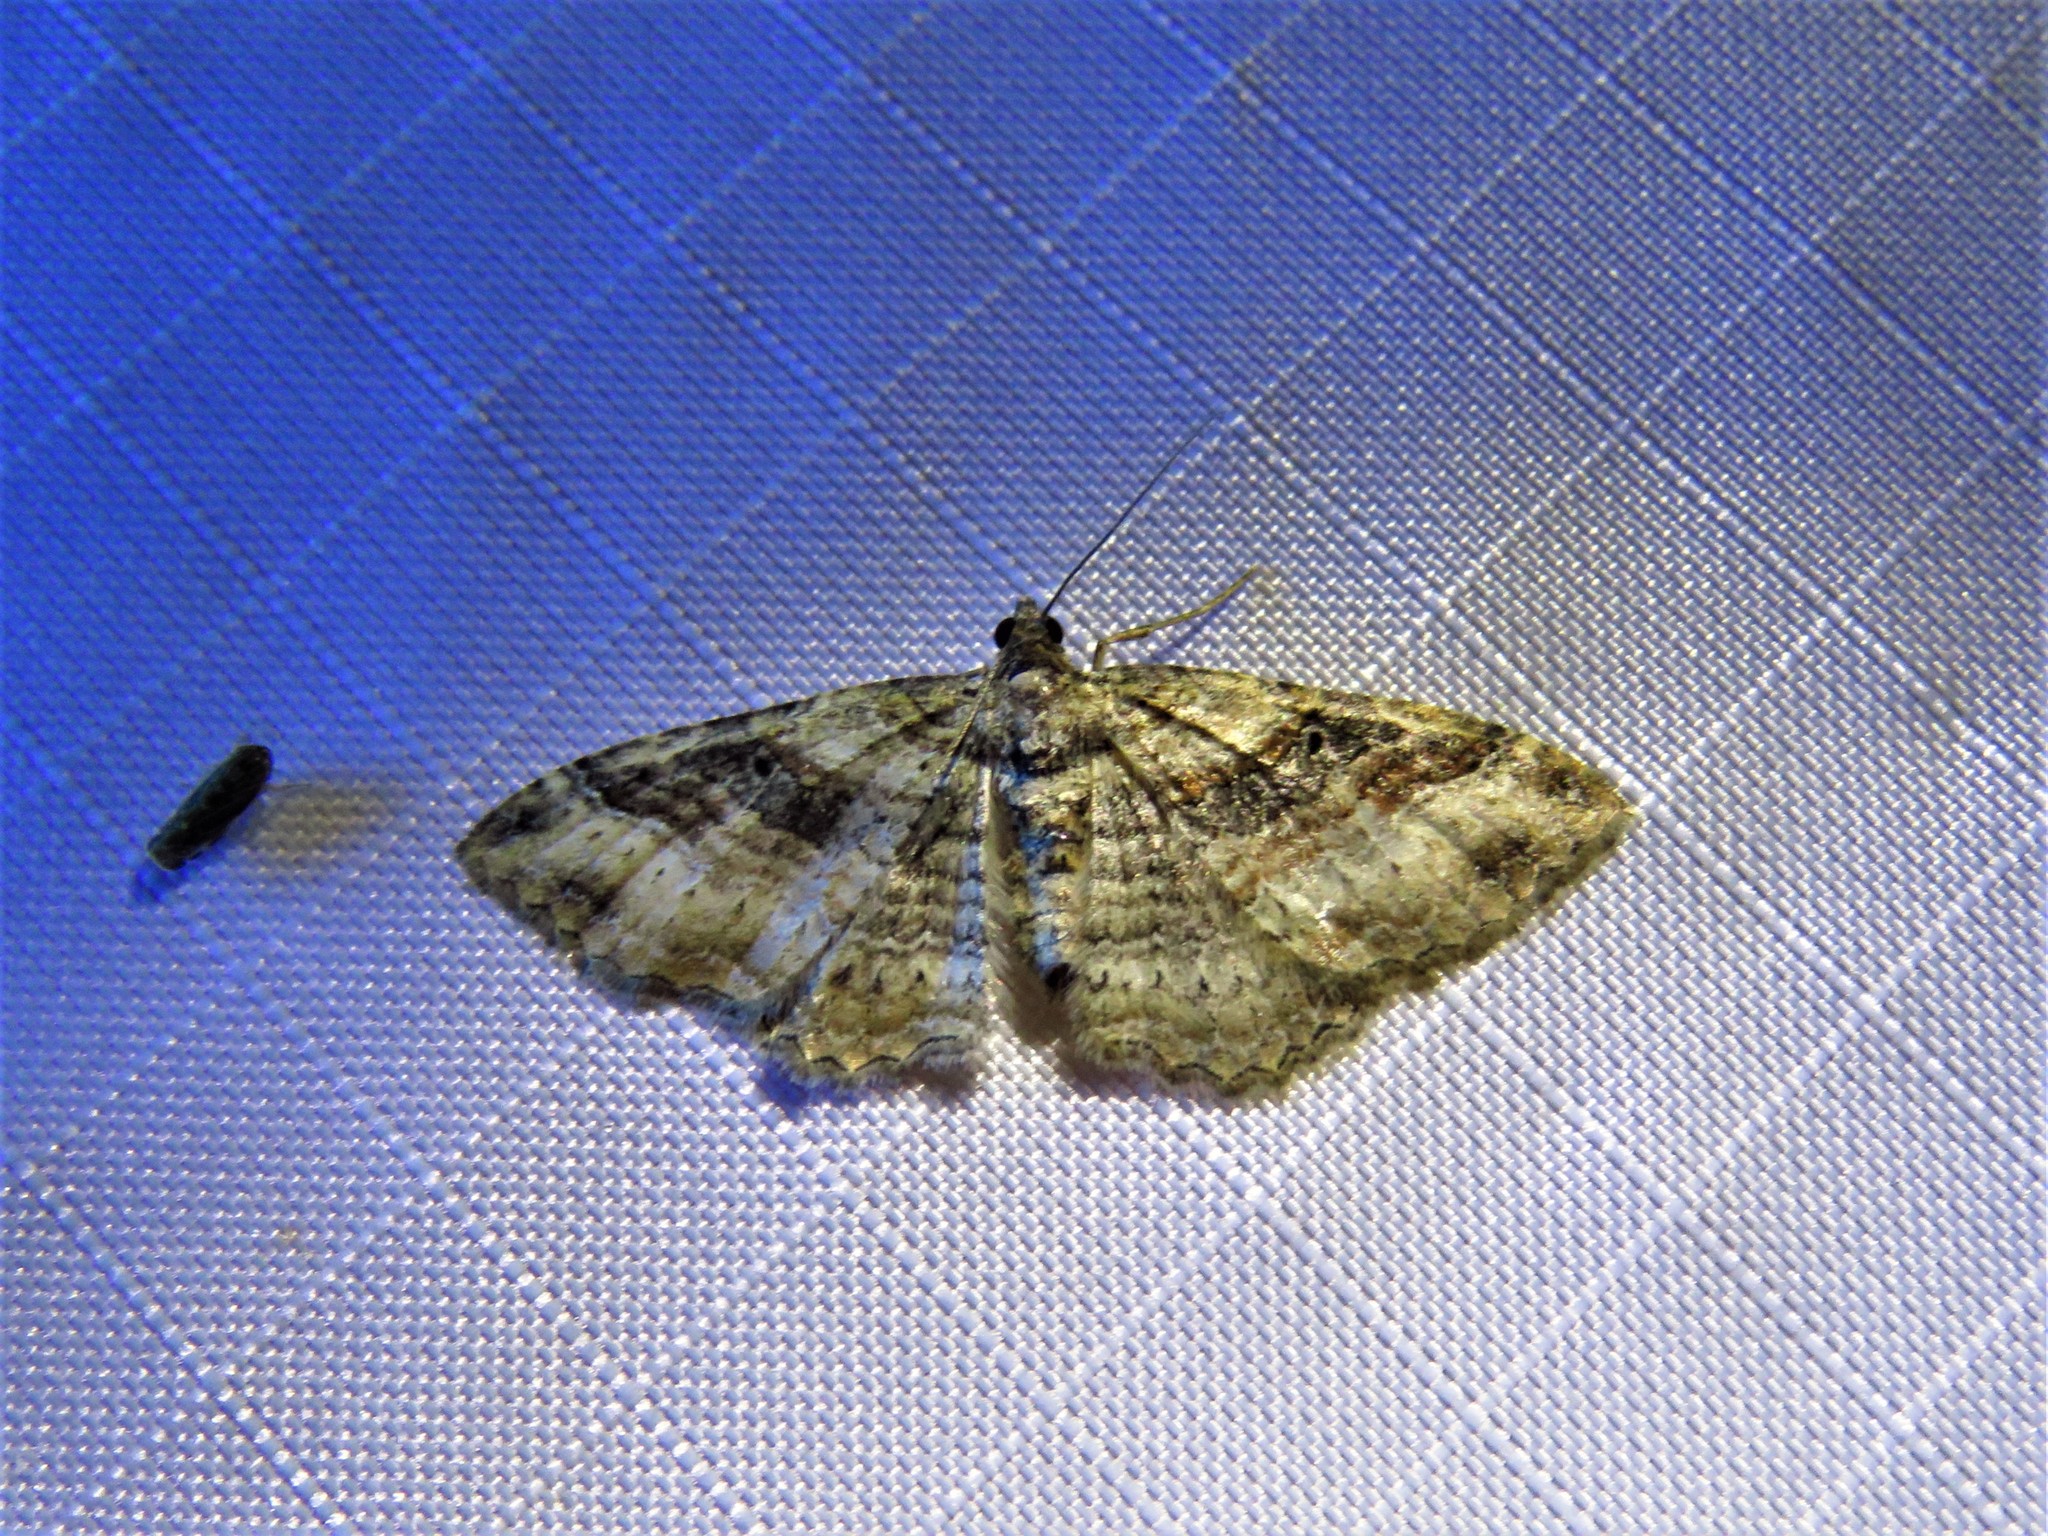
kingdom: Animalia
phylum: Arthropoda
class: Insecta
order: Lepidoptera
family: Geometridae
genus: Costaconvexa
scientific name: Costaconvexa centrostrigaria
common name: Bent-line carpet
